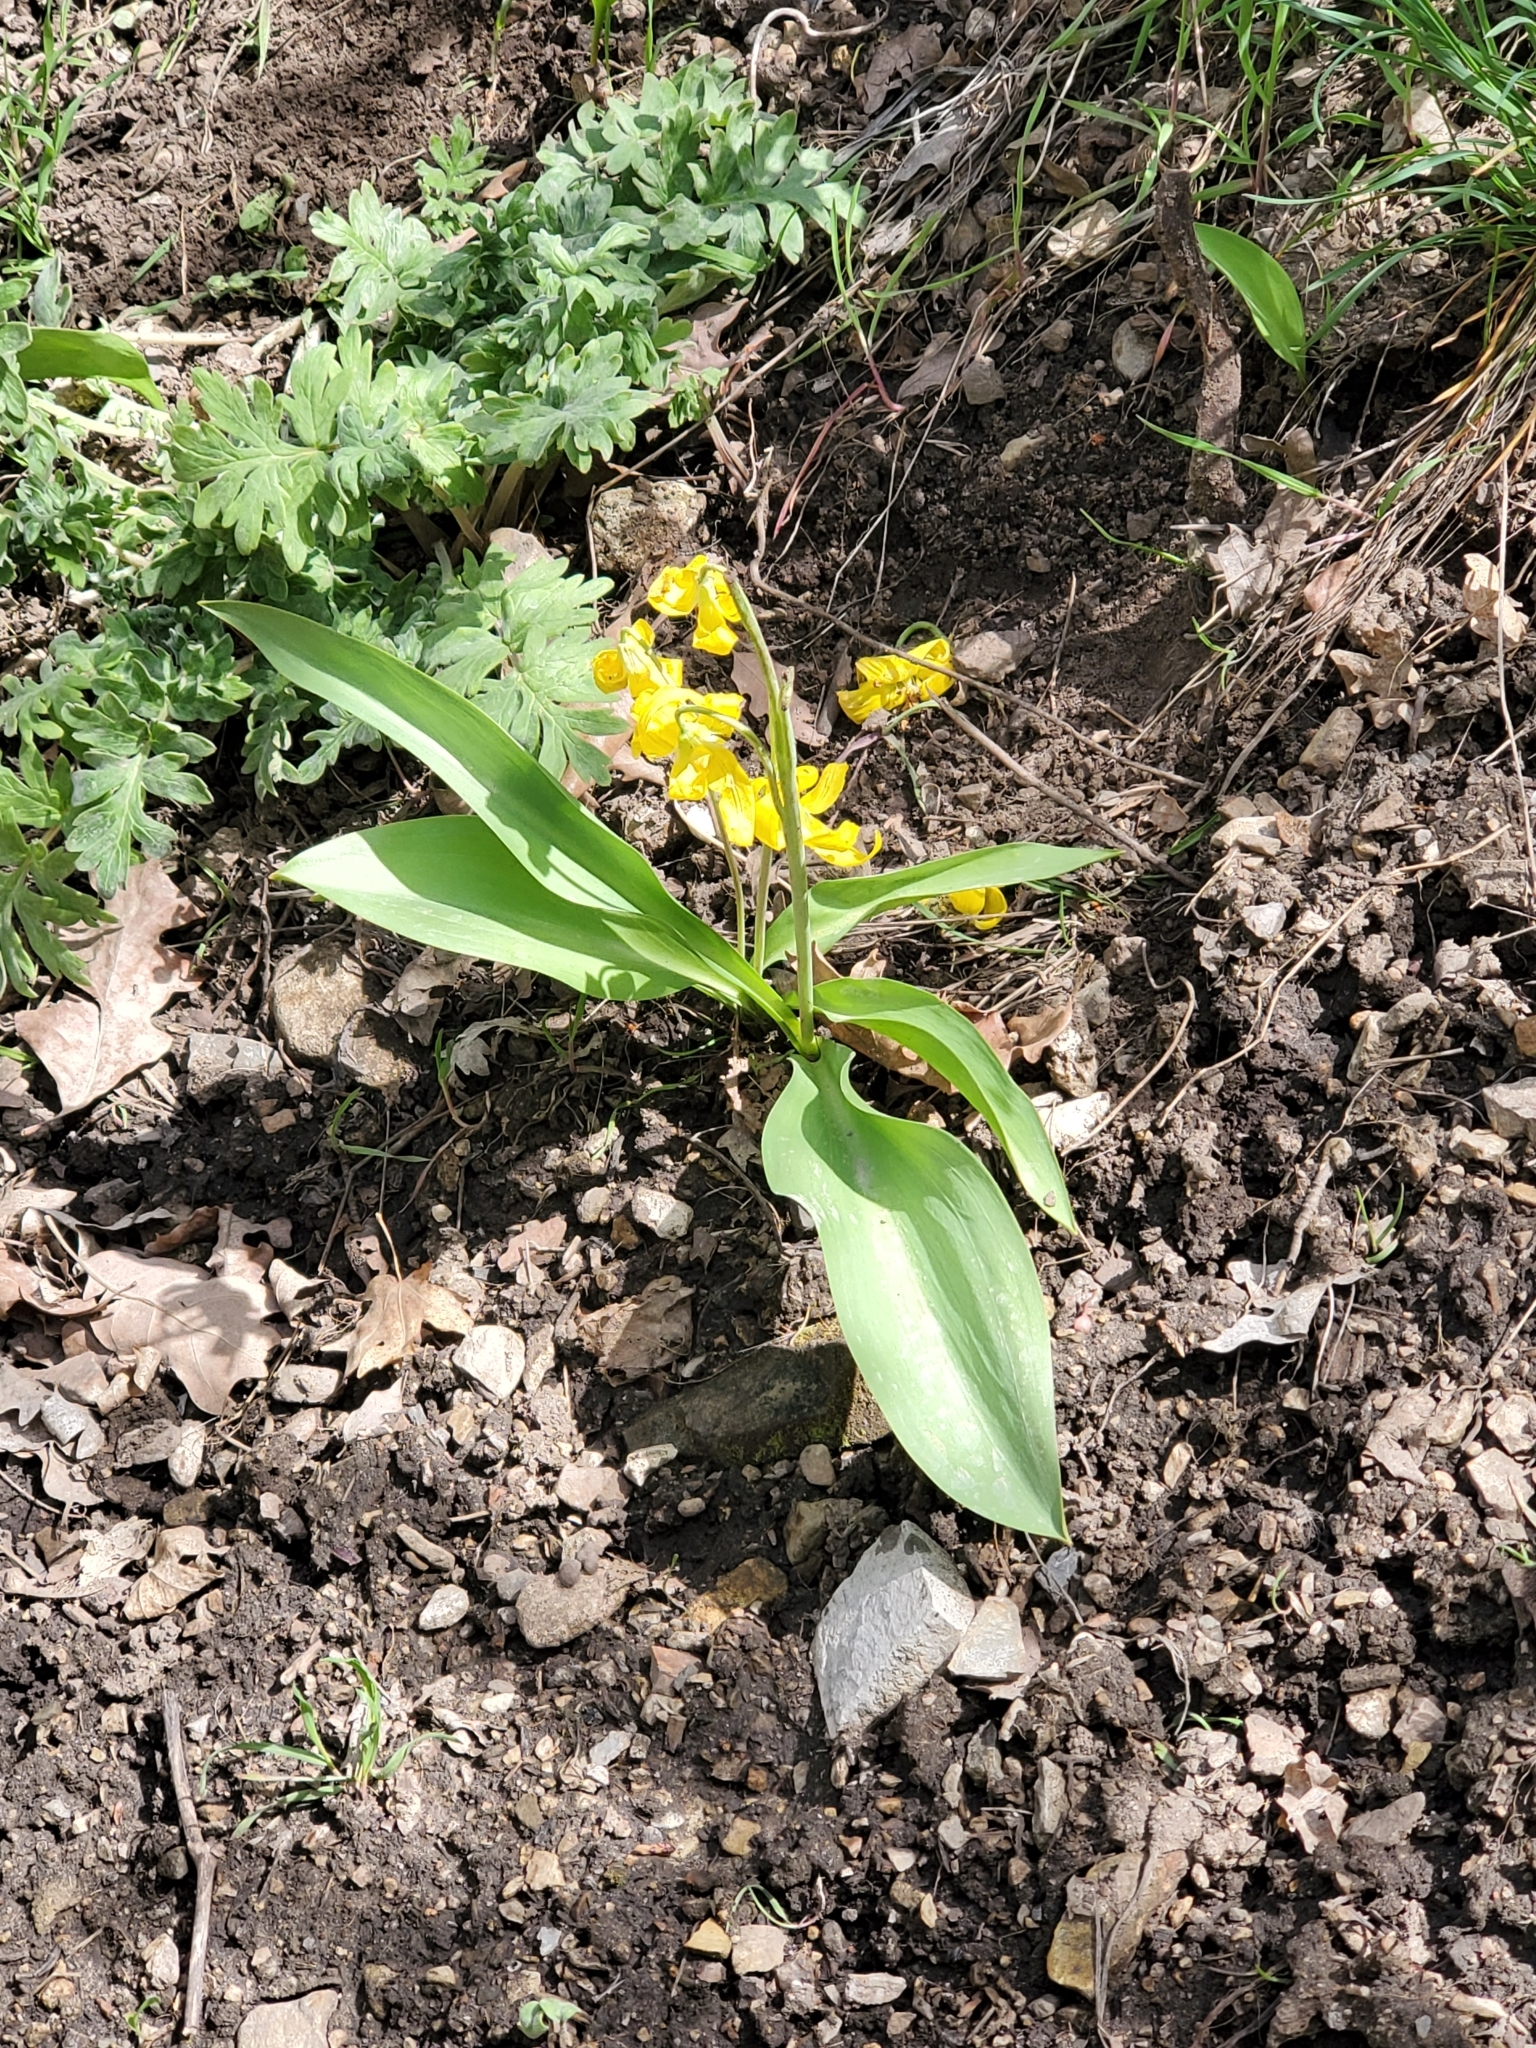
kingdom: Plantae
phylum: Tracheophyta
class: Liliopsida
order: Liliales
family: Liliaceae
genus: Erythronium
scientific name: Erythronium grandiflorum
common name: Avalanche-lily
